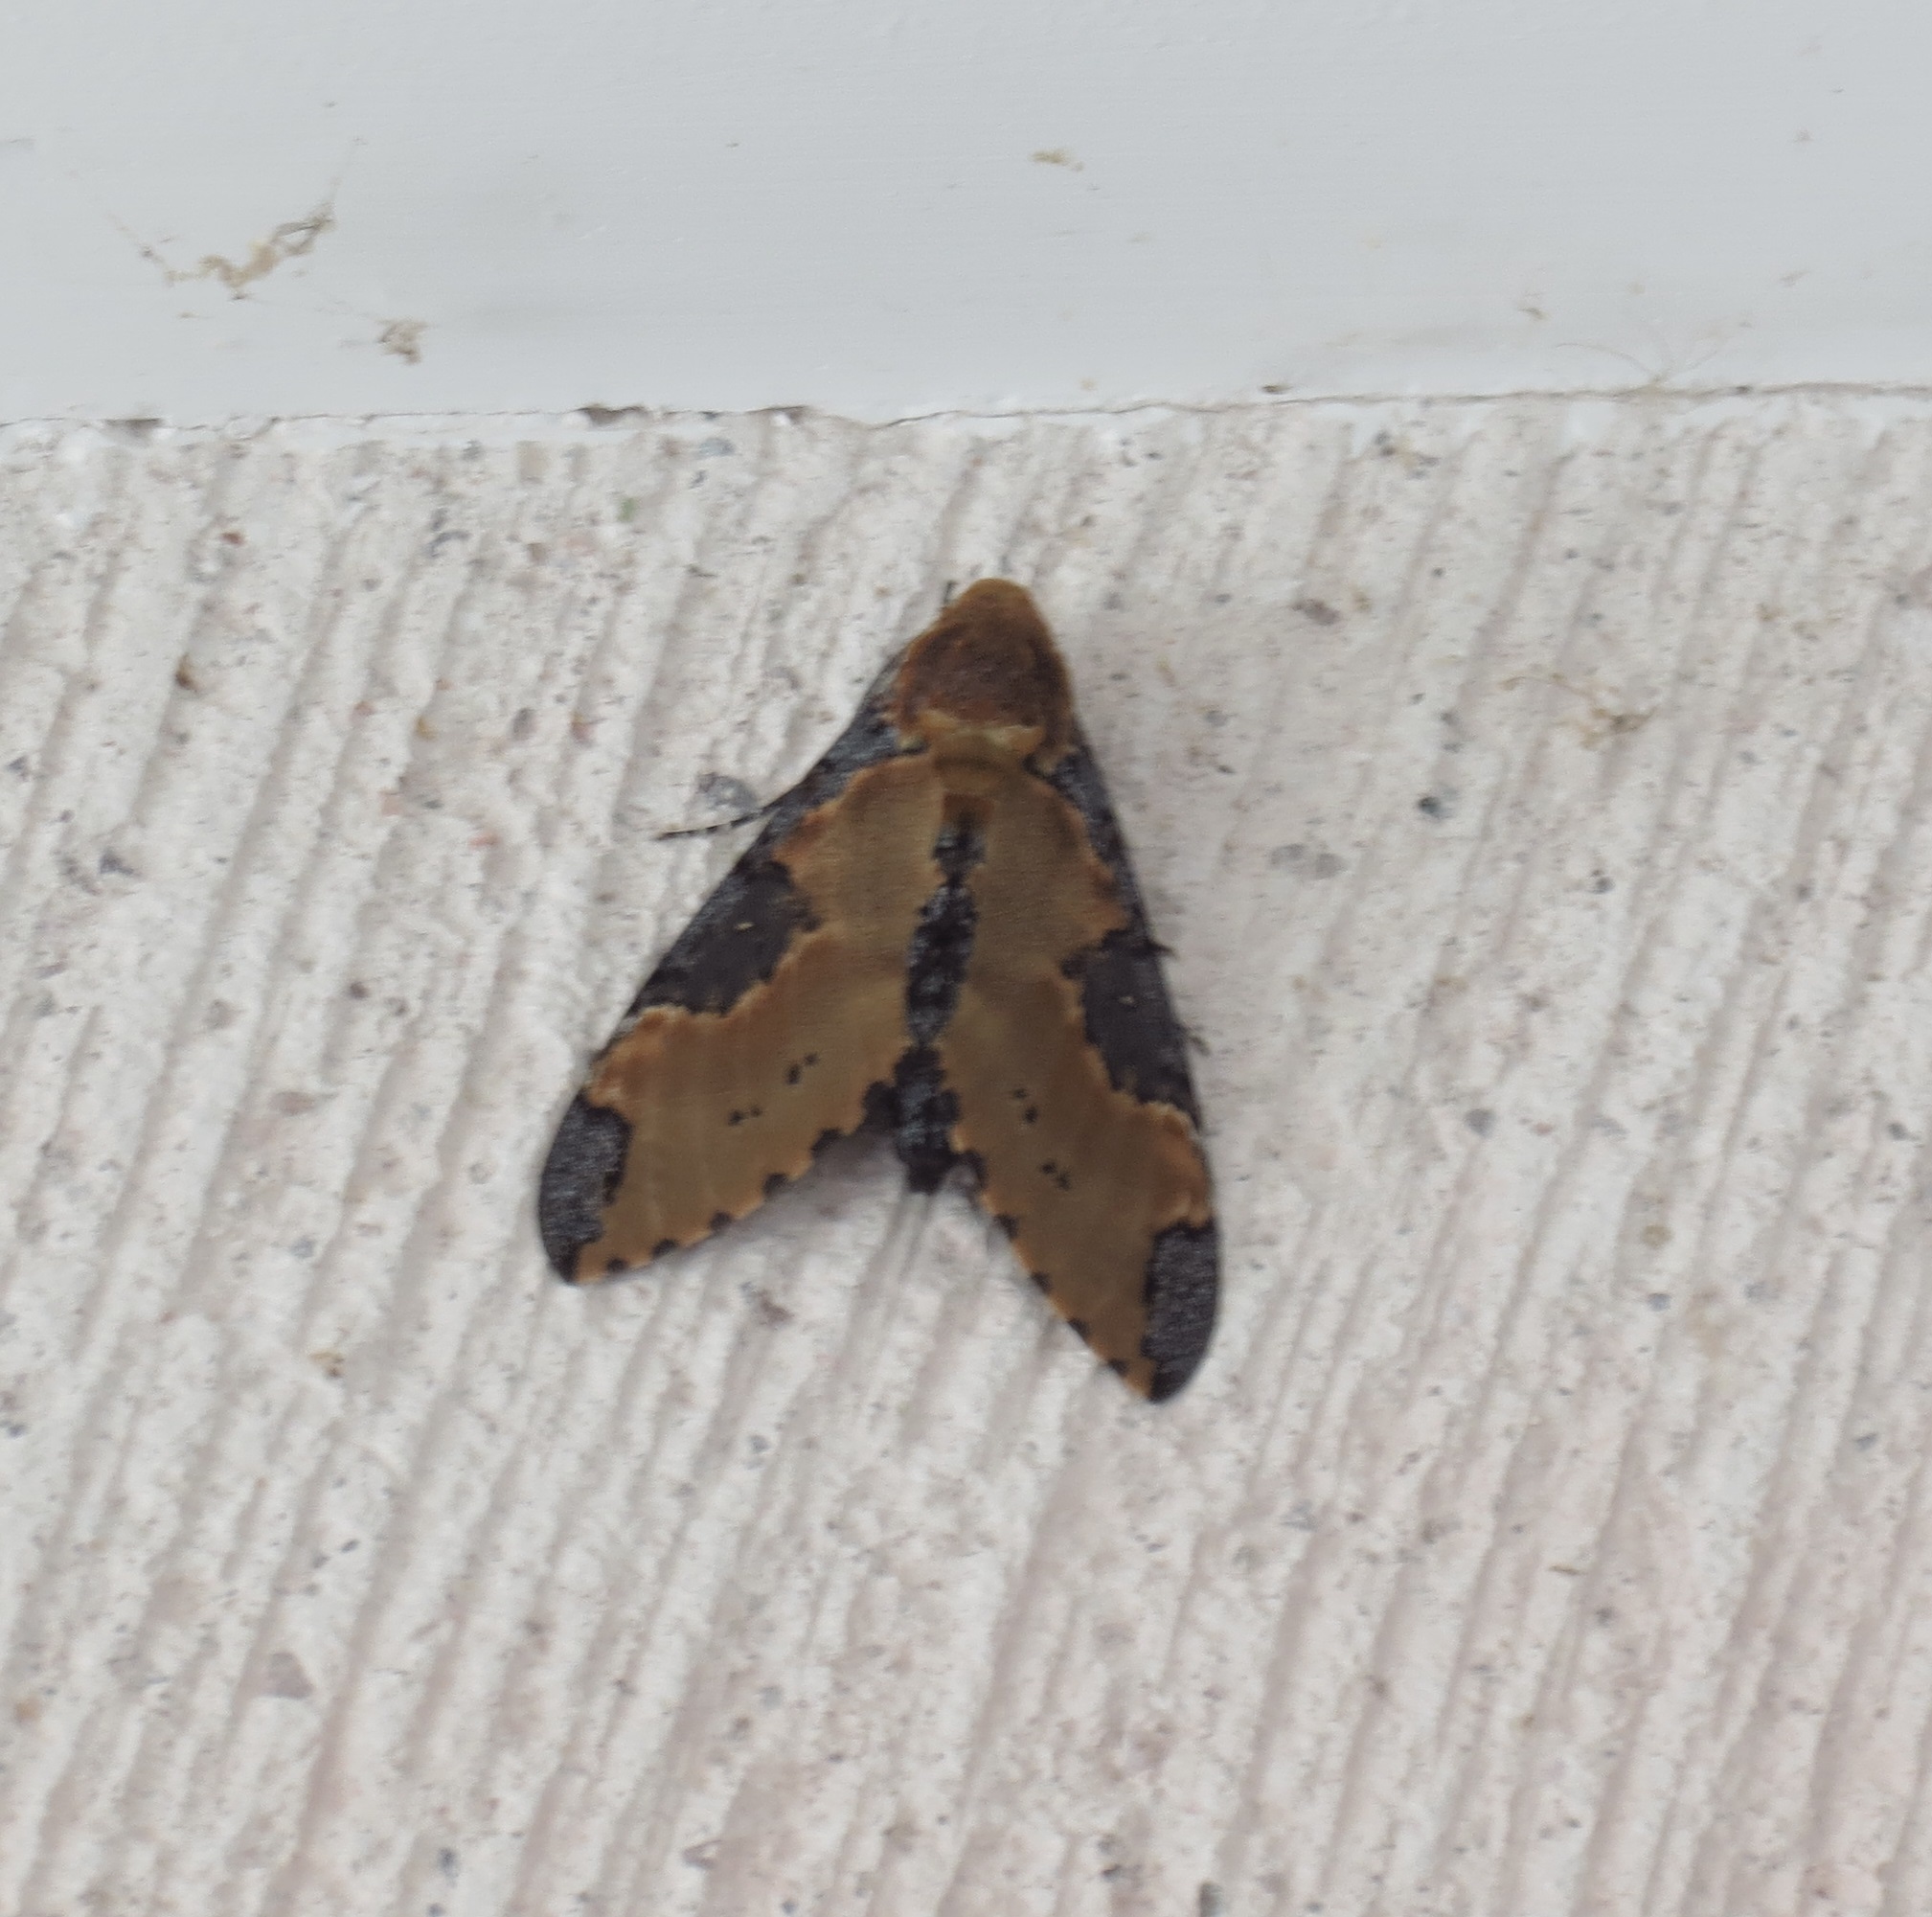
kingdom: Animalia
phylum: Arthropoda
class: Insecta
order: Lepidoptera
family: Sphingidae
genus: Manduca
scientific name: Manduca ochus
